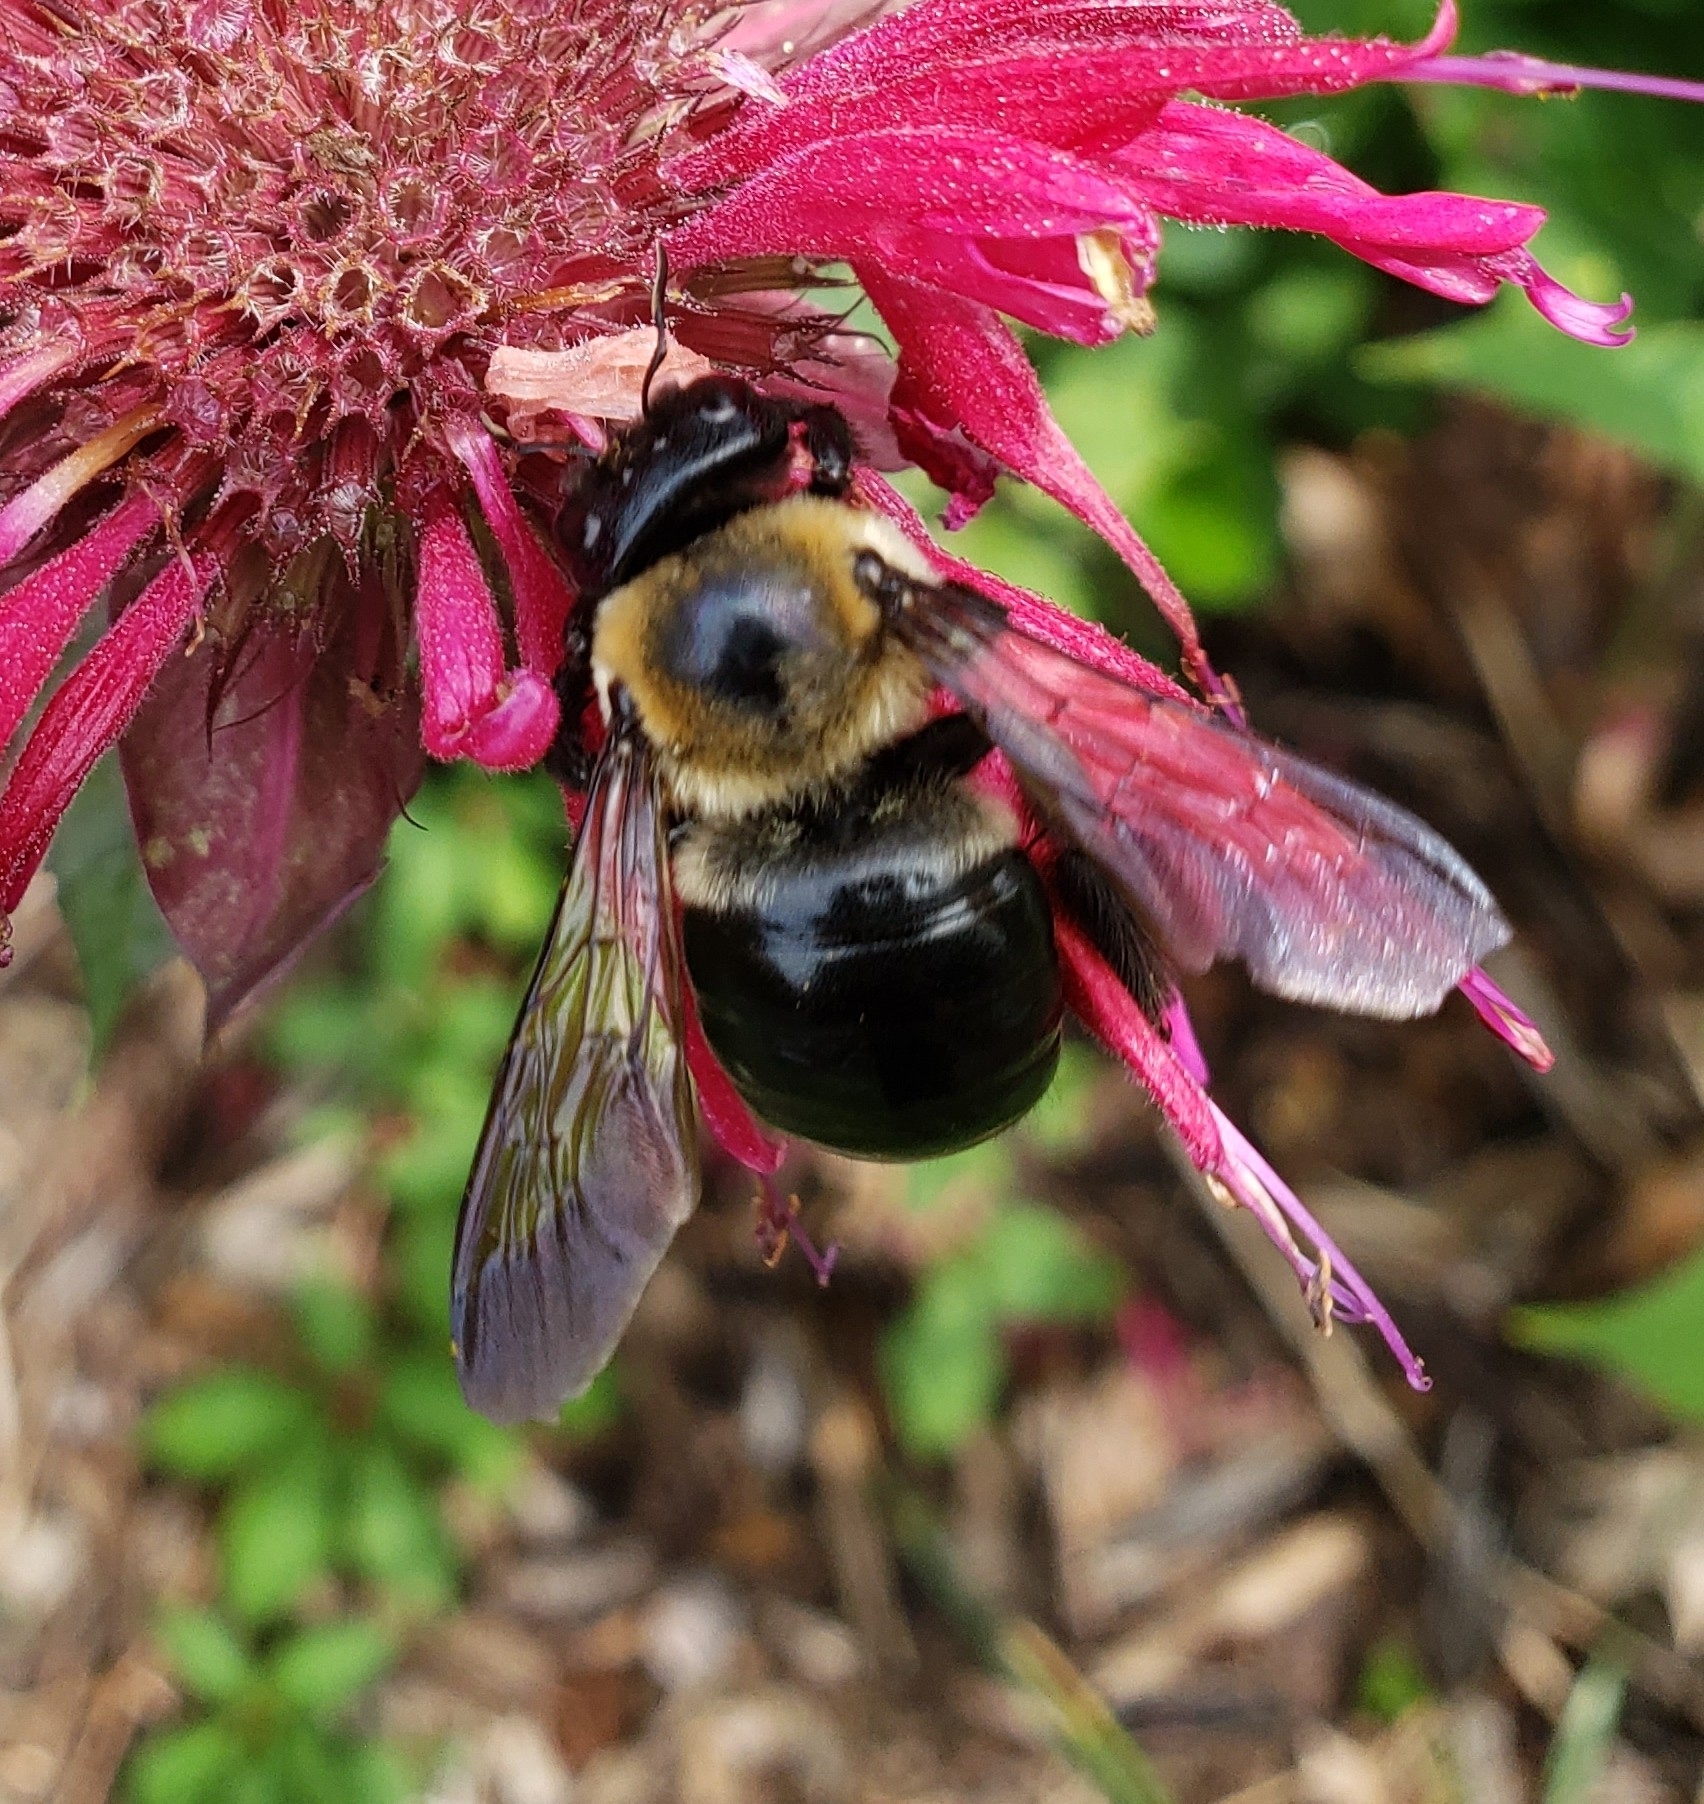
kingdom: Animalia
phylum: Arthropoda
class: Insecta
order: Hymenoptera
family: Apidae
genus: Xylocopa
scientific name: Xylocopa virginica
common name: Carpenter bee
